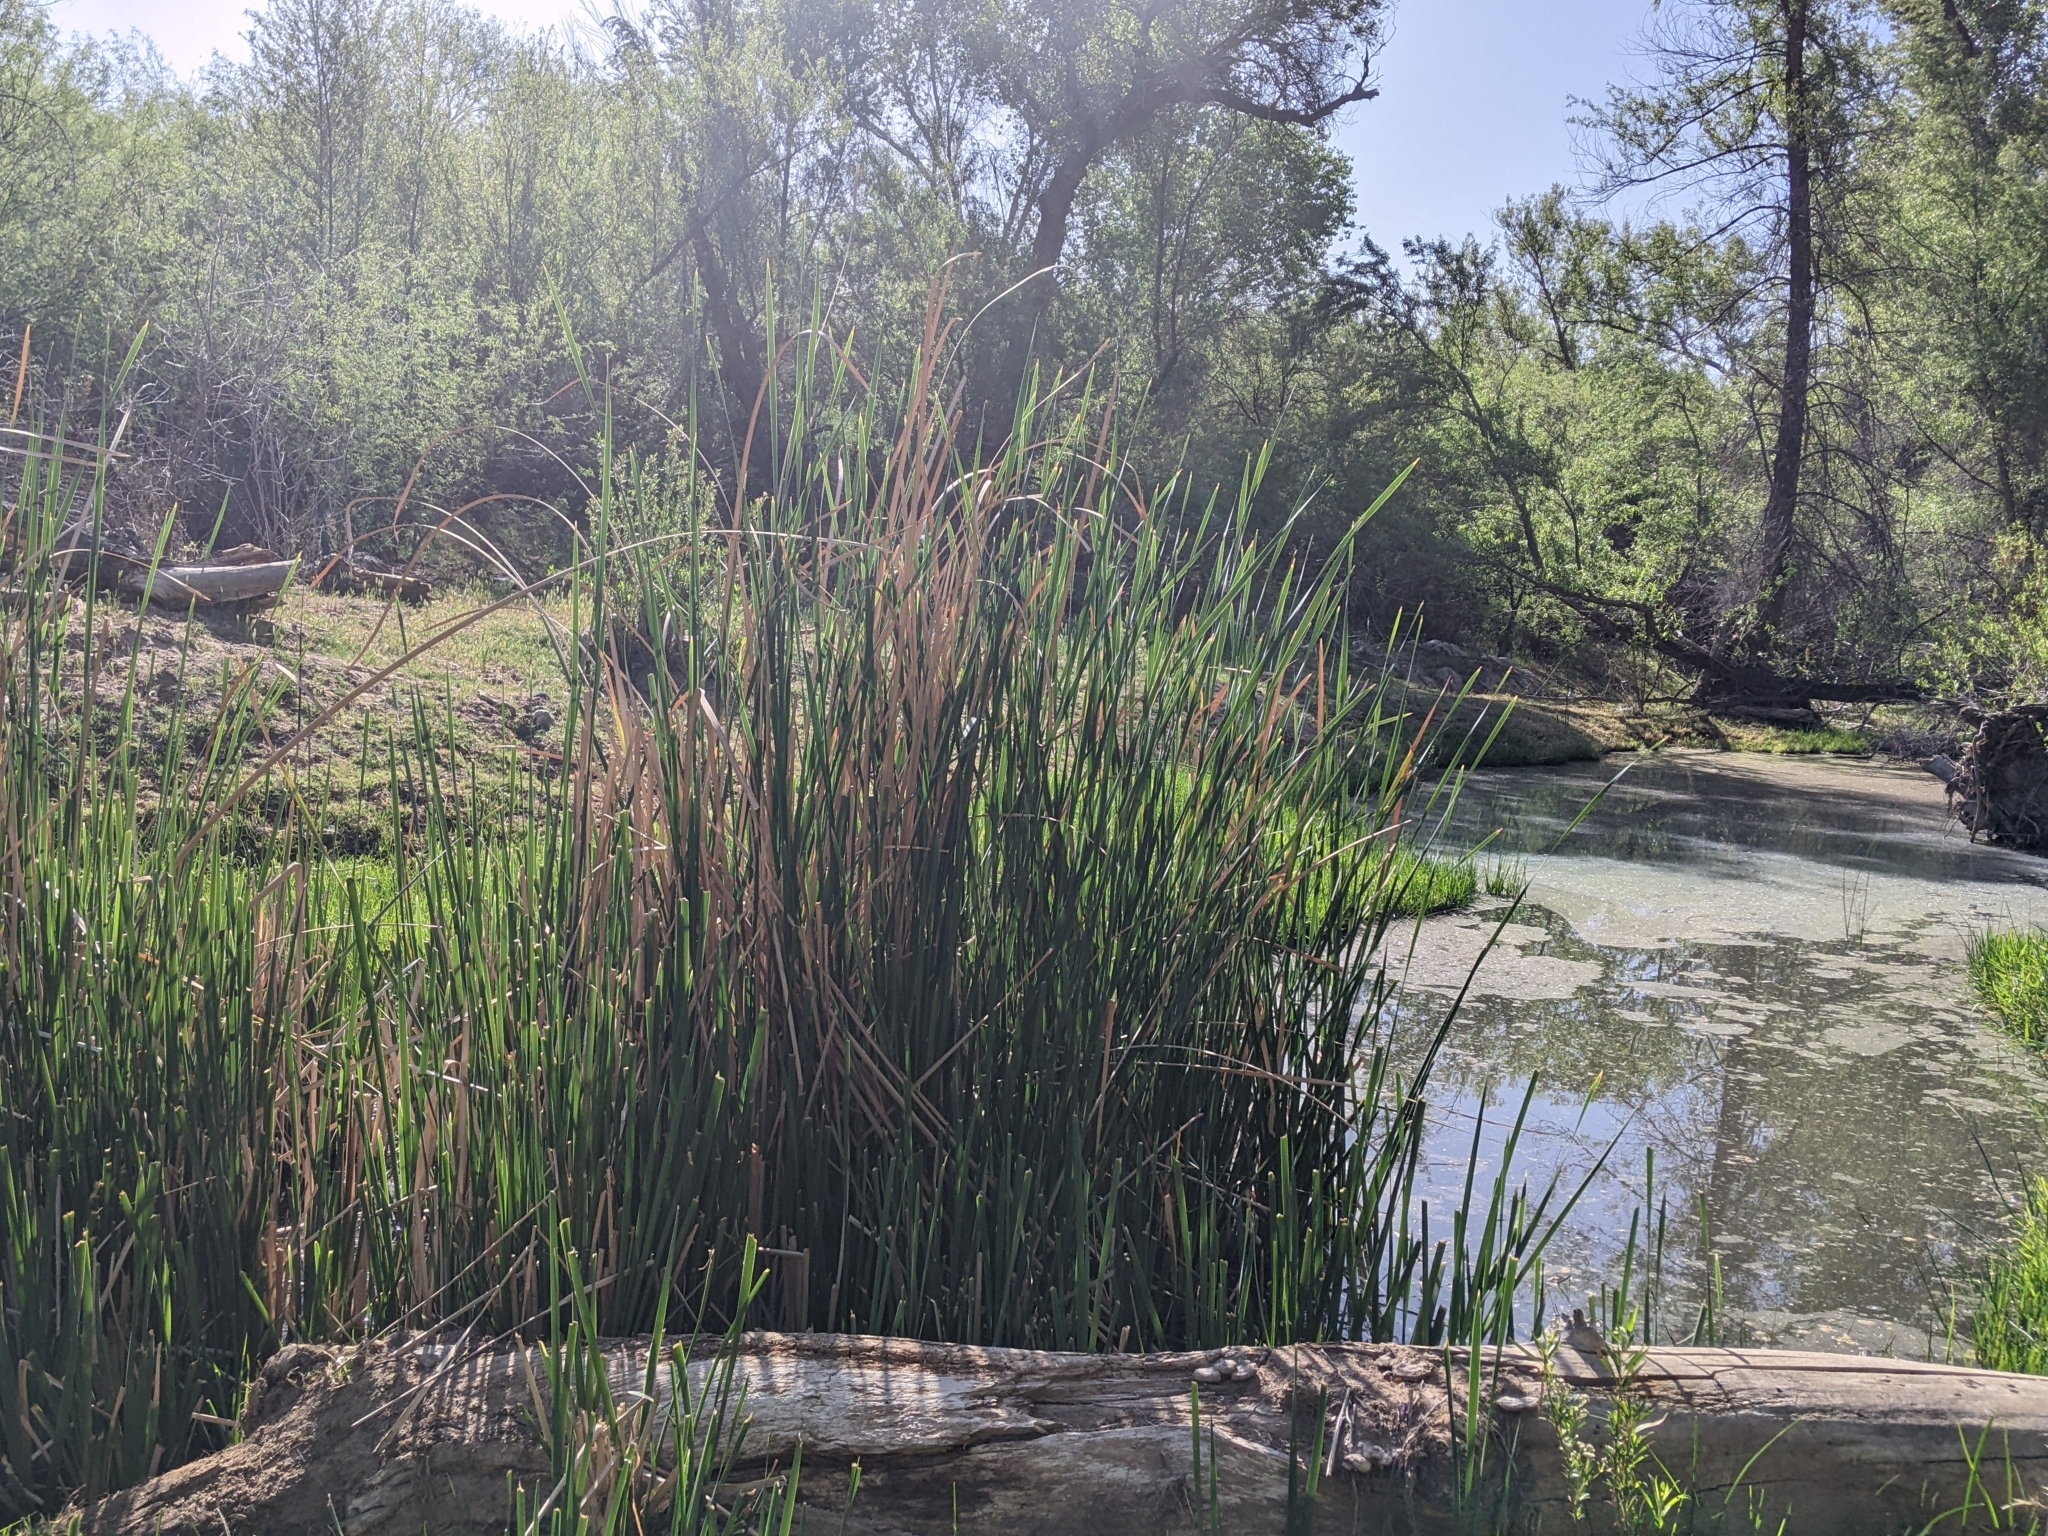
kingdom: Plantae
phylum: Tracheophyta
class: Liliopsida
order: Poales
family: Typhaceae
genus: Typha
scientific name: Typha domingensis
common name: Southern cattail
